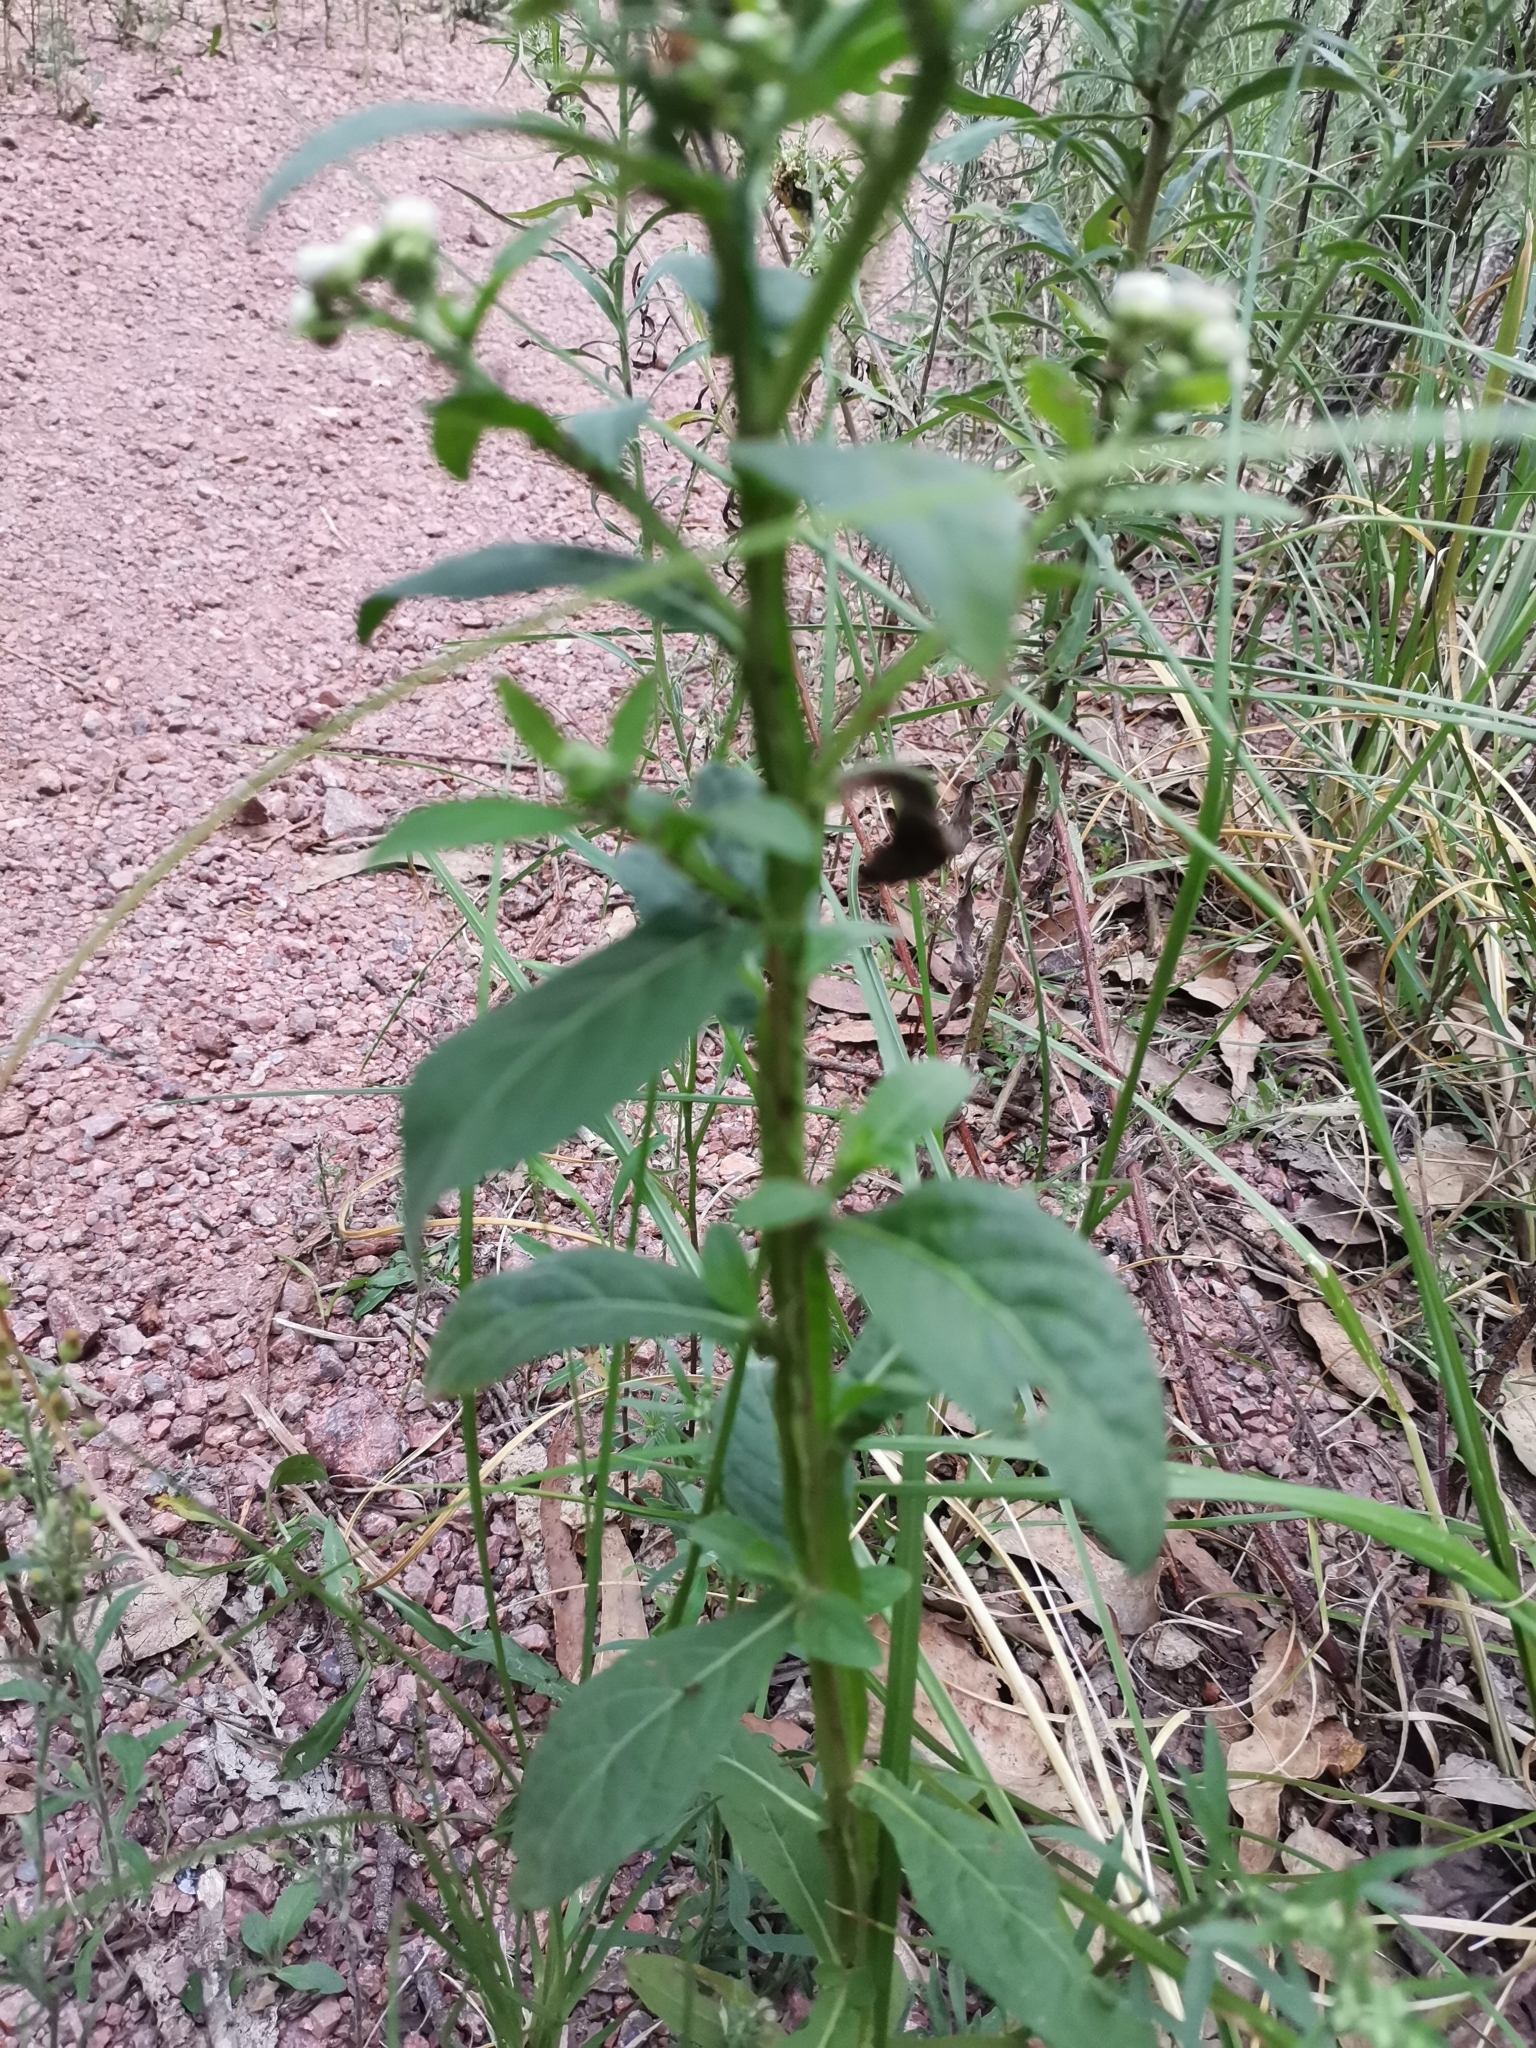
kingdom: Plantae
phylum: Tracheophyta
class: Magnoliopsida
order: Asterales
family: Asteraceae
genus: Pluchea
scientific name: Pluchea sagittalis
